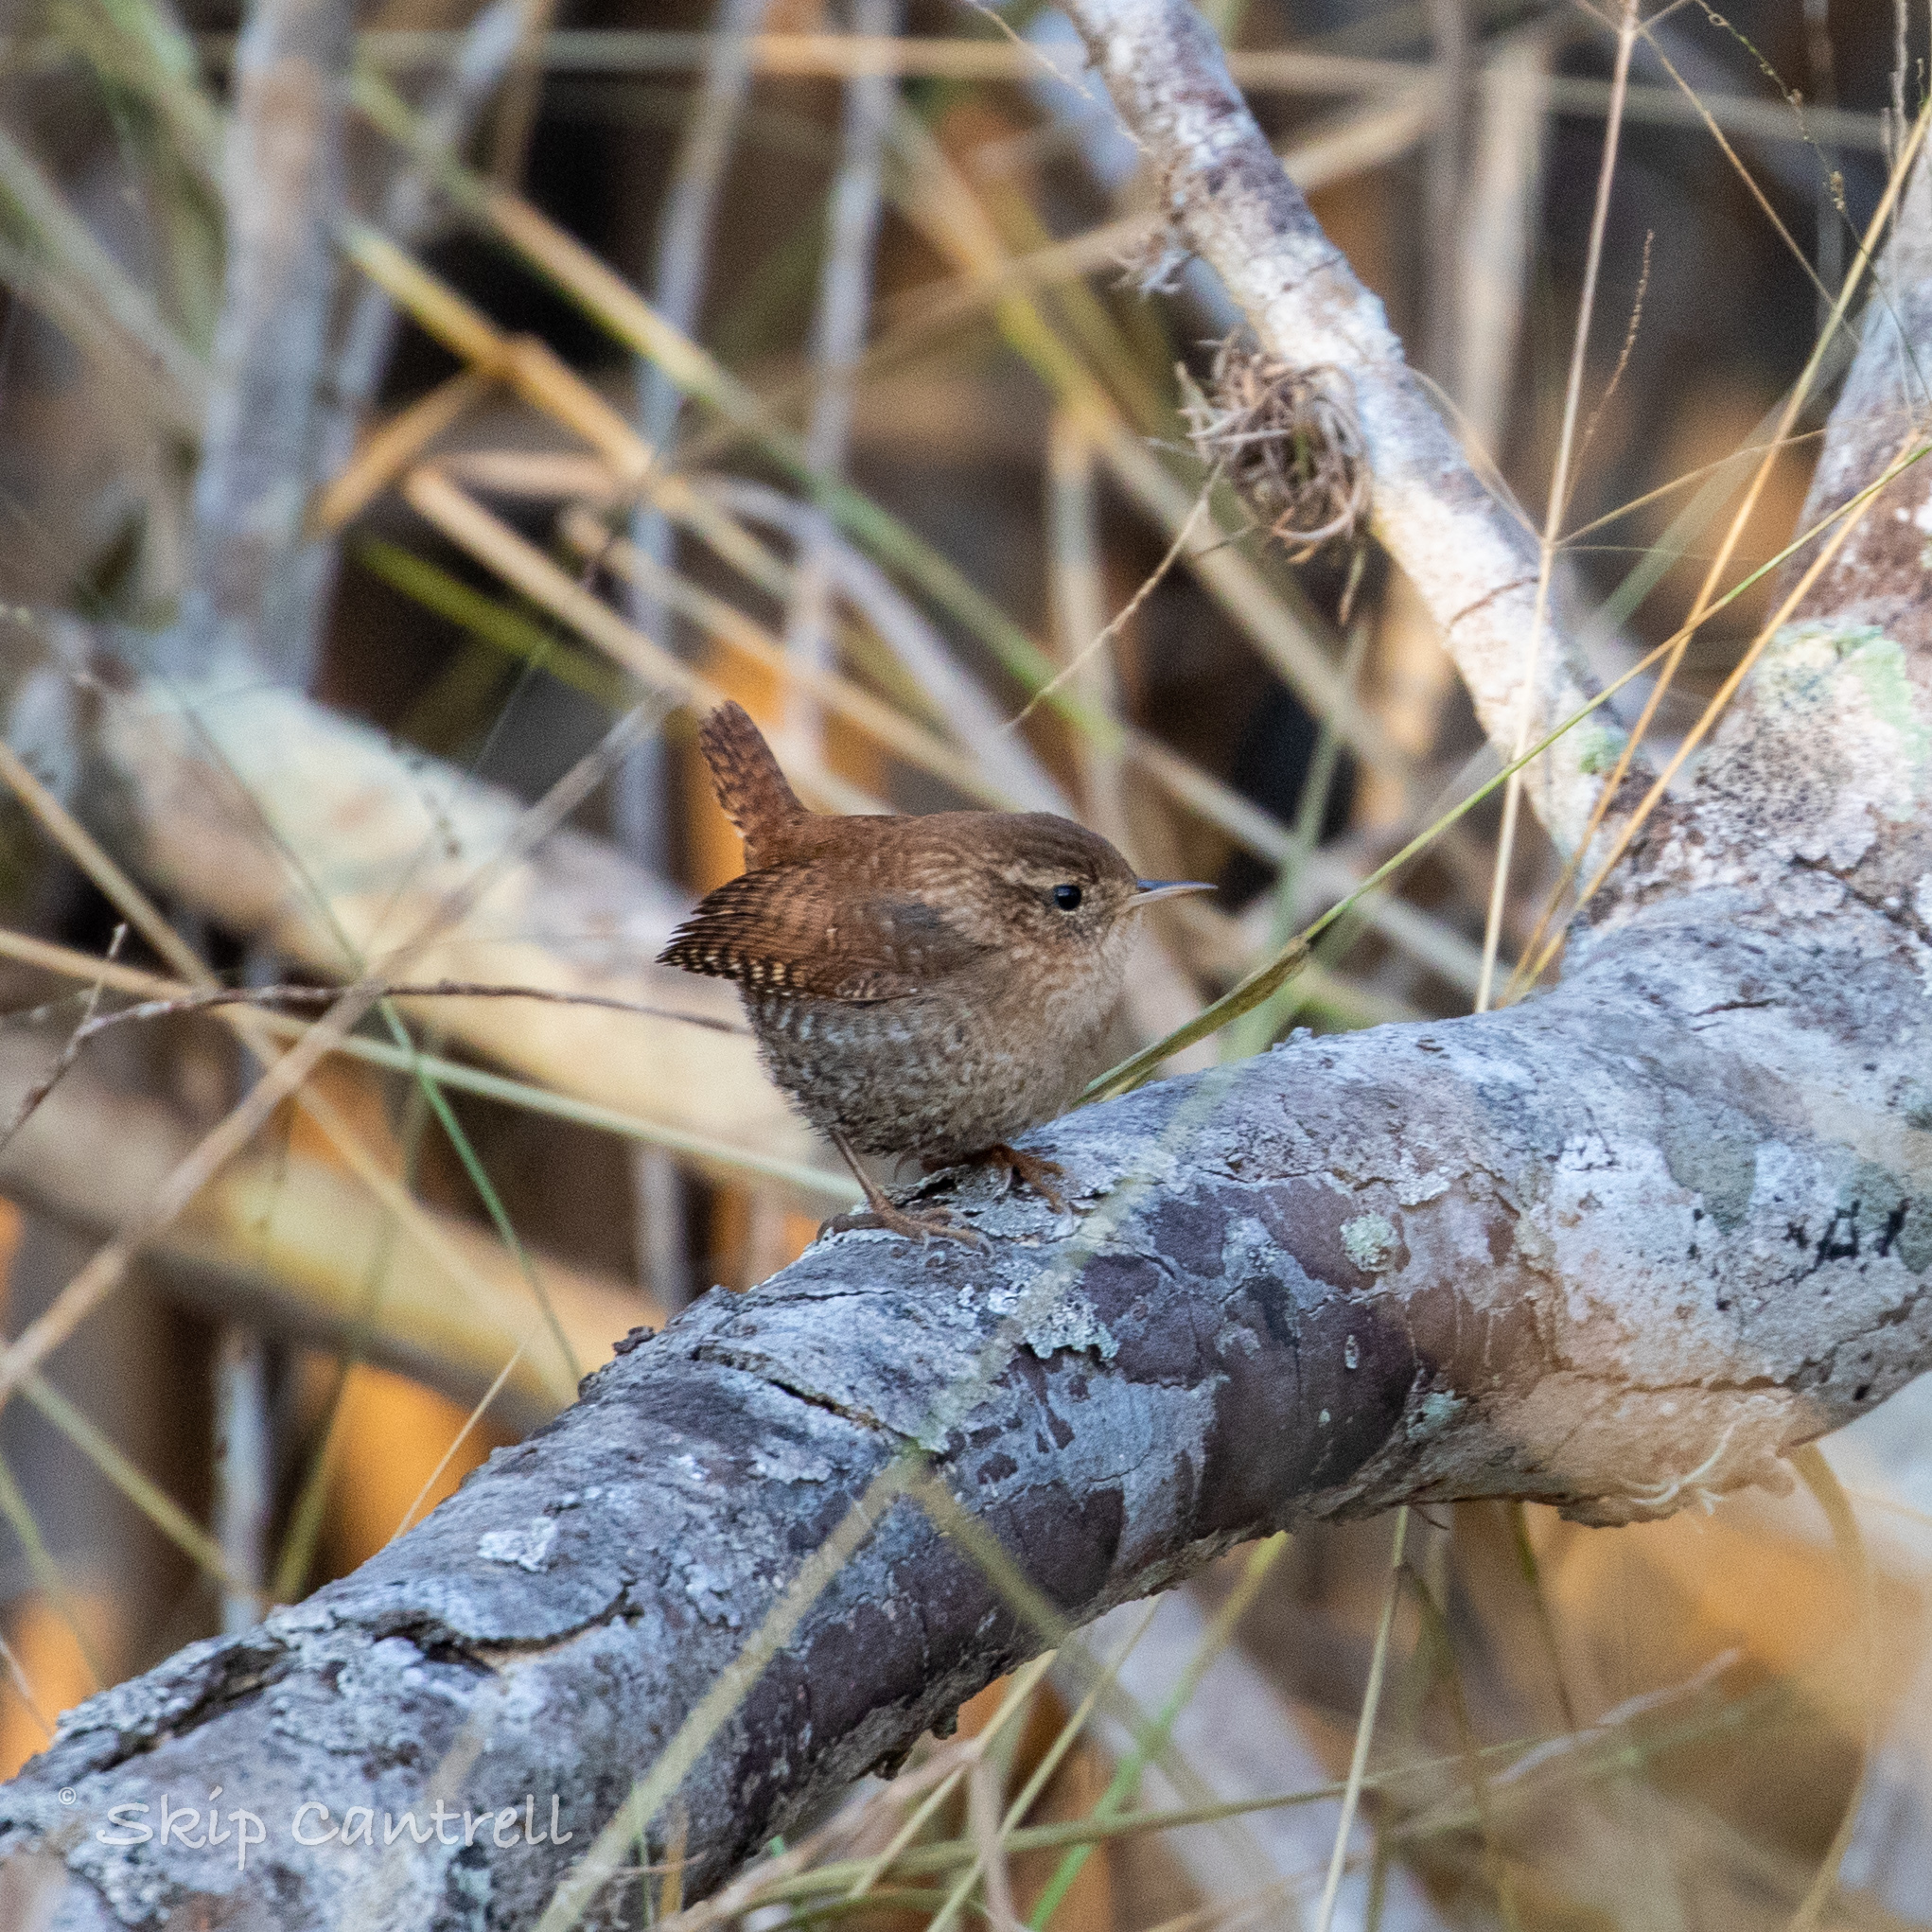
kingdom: Animalia
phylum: Chordata
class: Aves
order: Passeriformes
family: Troglodytidae
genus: Troglodytes
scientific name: Troglodytes hiemalis
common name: Winter wren
